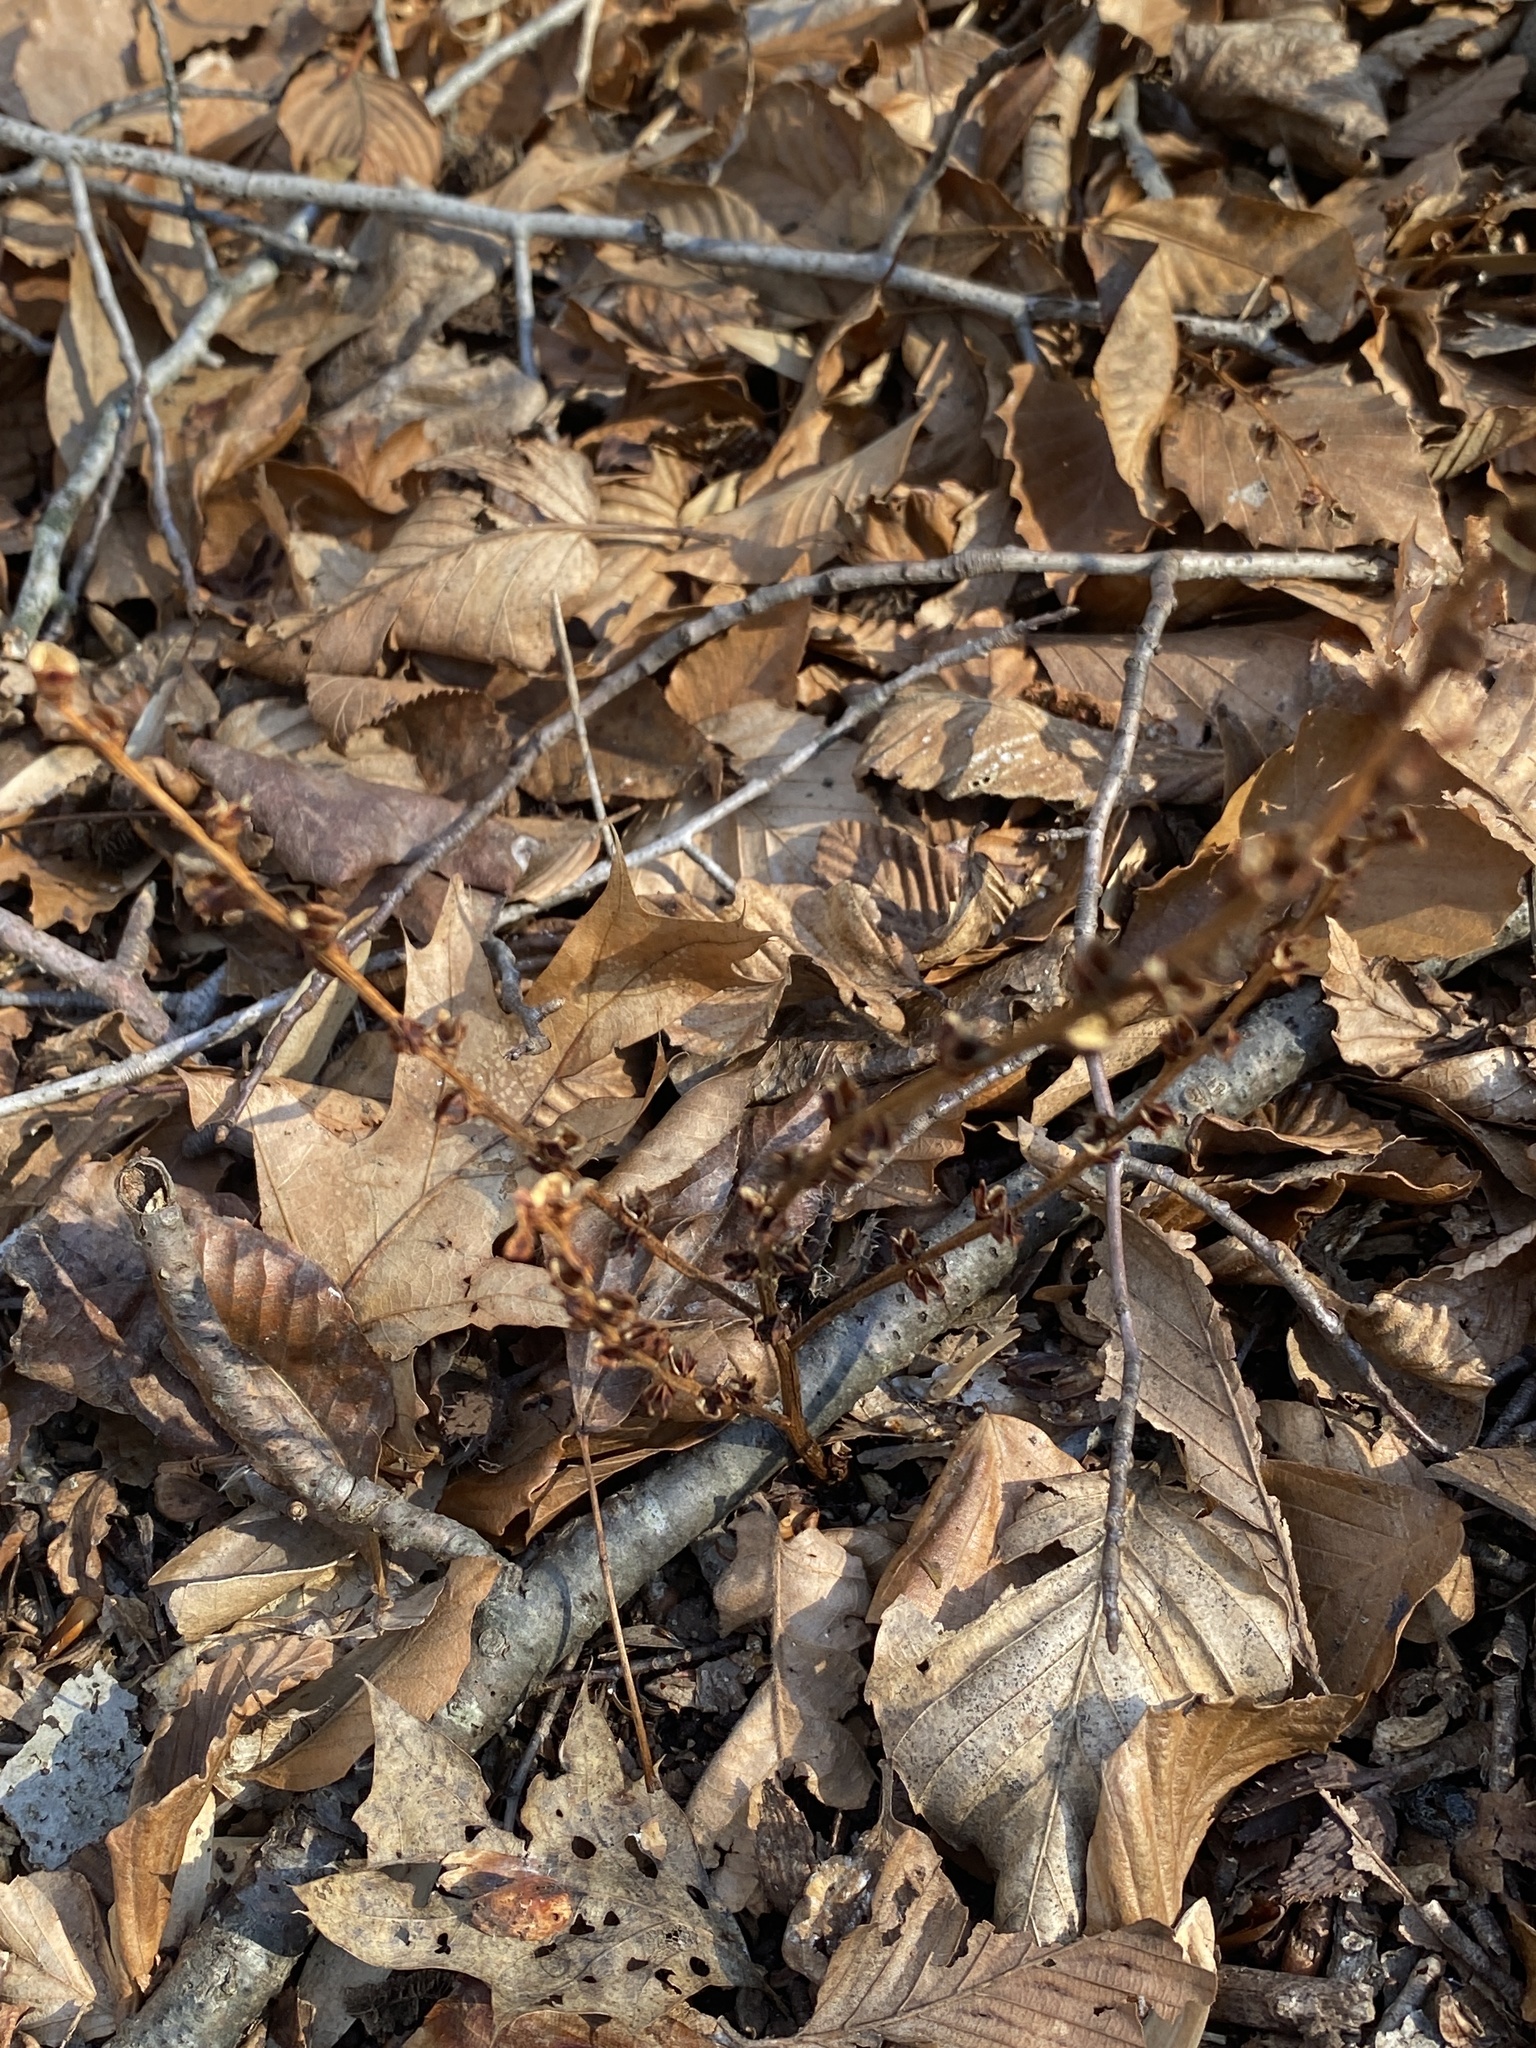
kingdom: Plantae
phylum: Tracheophyta
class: Magnoliopsida
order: Lamiales
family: Orobanchaceae
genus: Epifagus
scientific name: Epifagus virginiana
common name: Beechdrops
